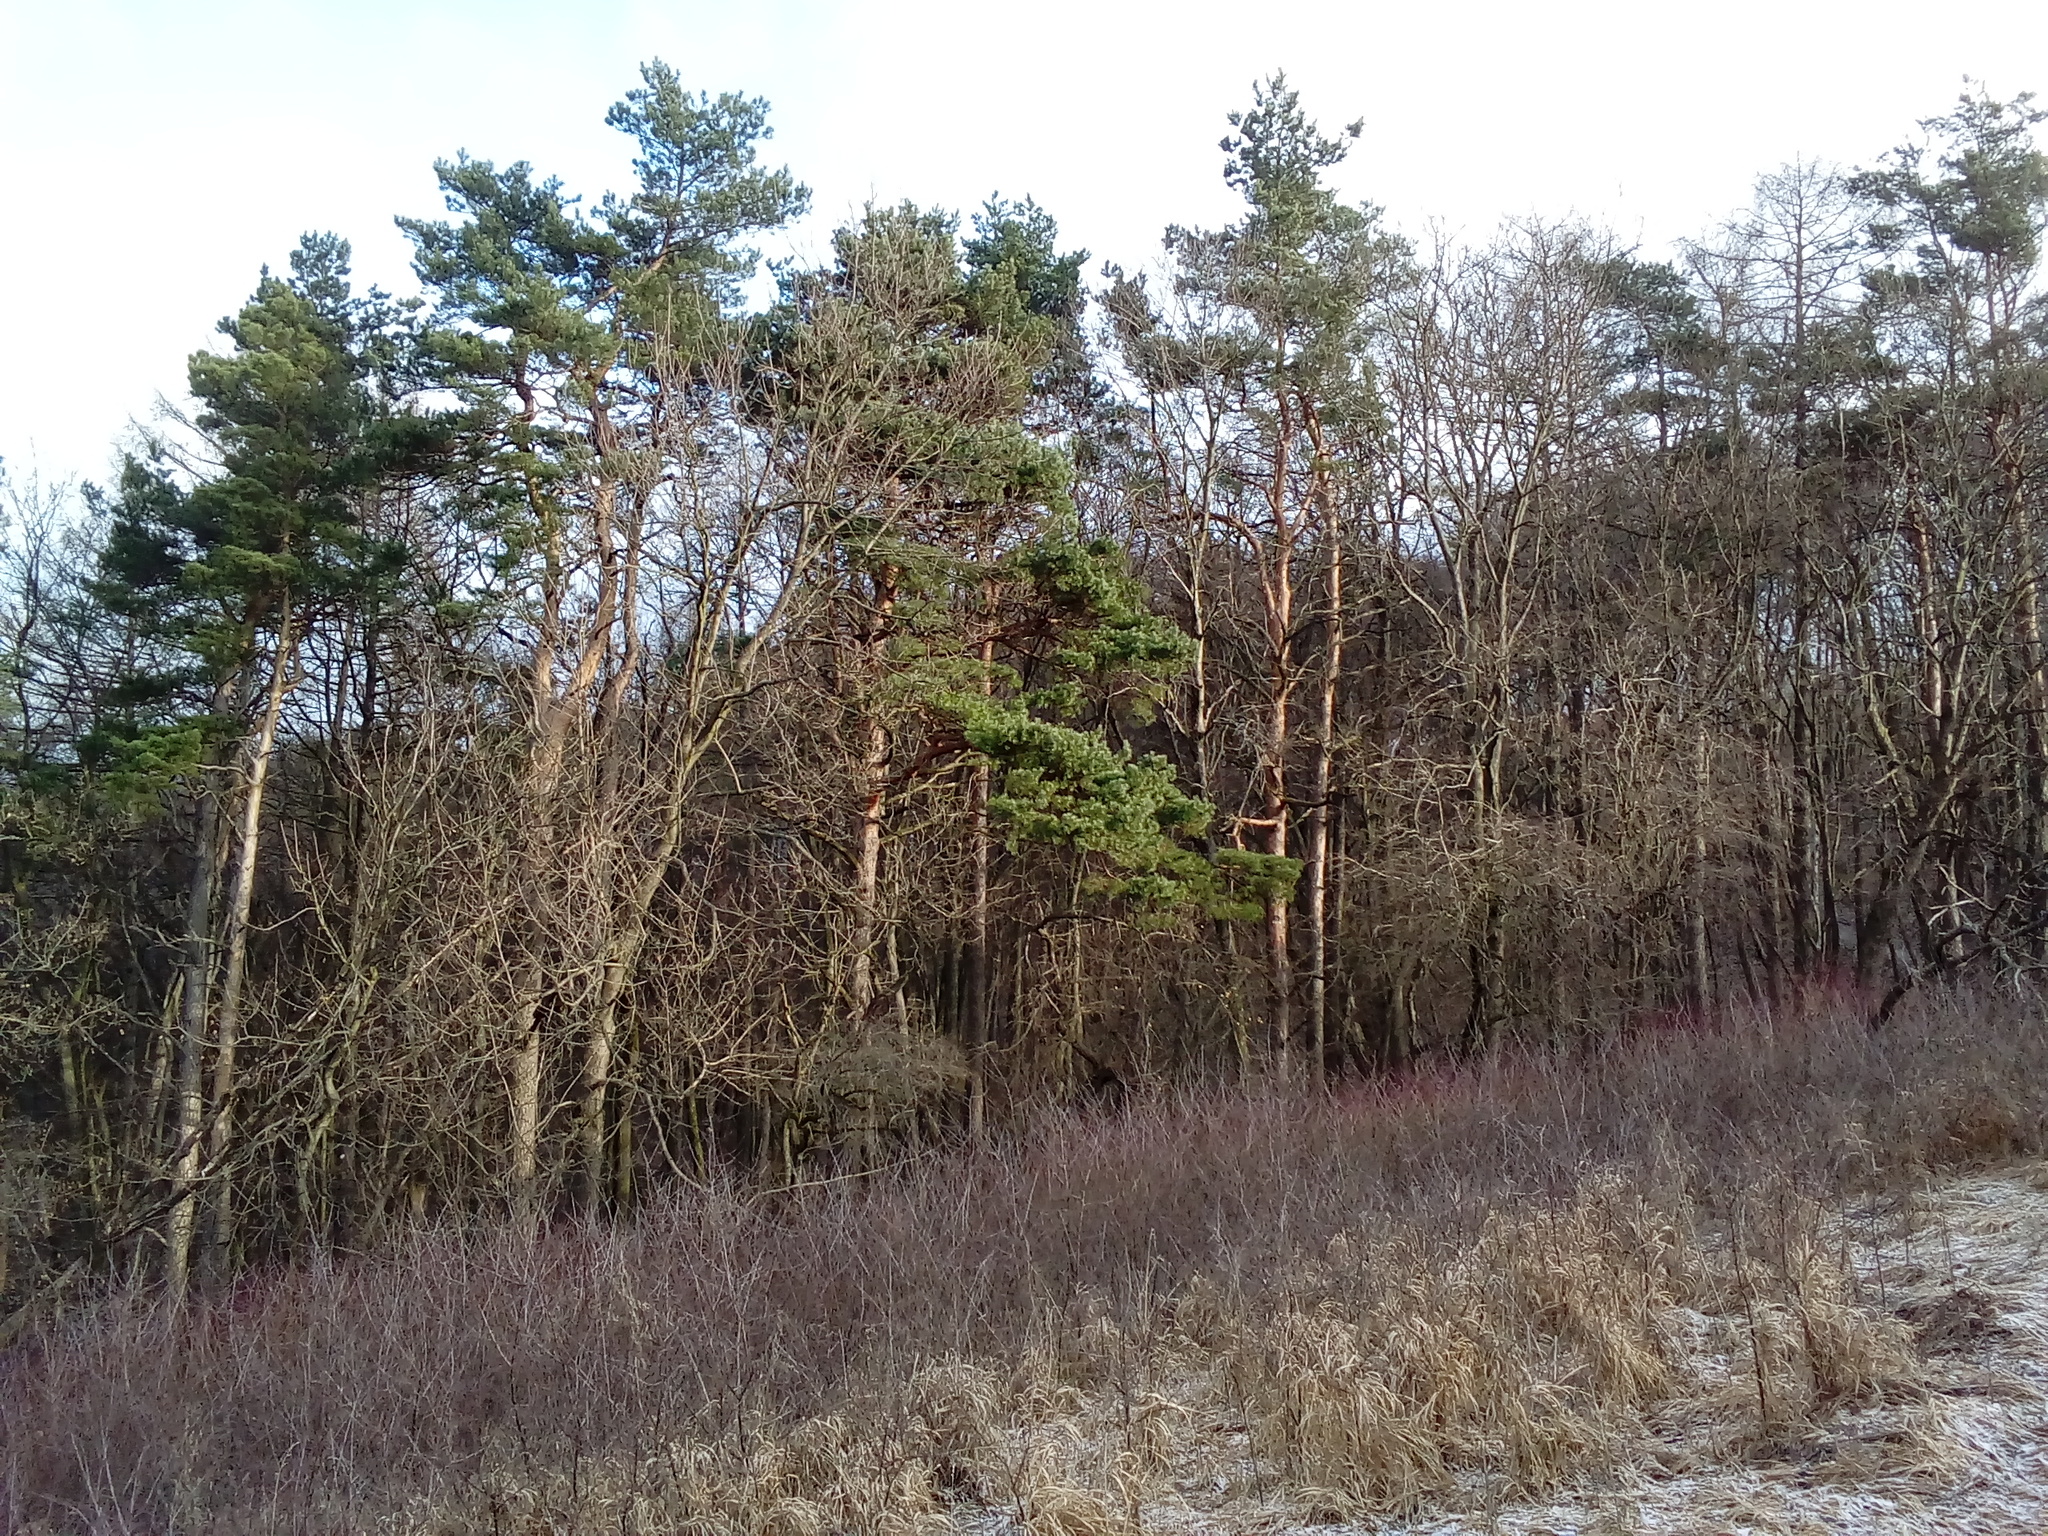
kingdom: Plantae
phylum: Tracheophyta
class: Pinopsida
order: Pinales
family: Pinaceae
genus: Pinus
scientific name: Pinus sylvestris
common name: Scots pine
